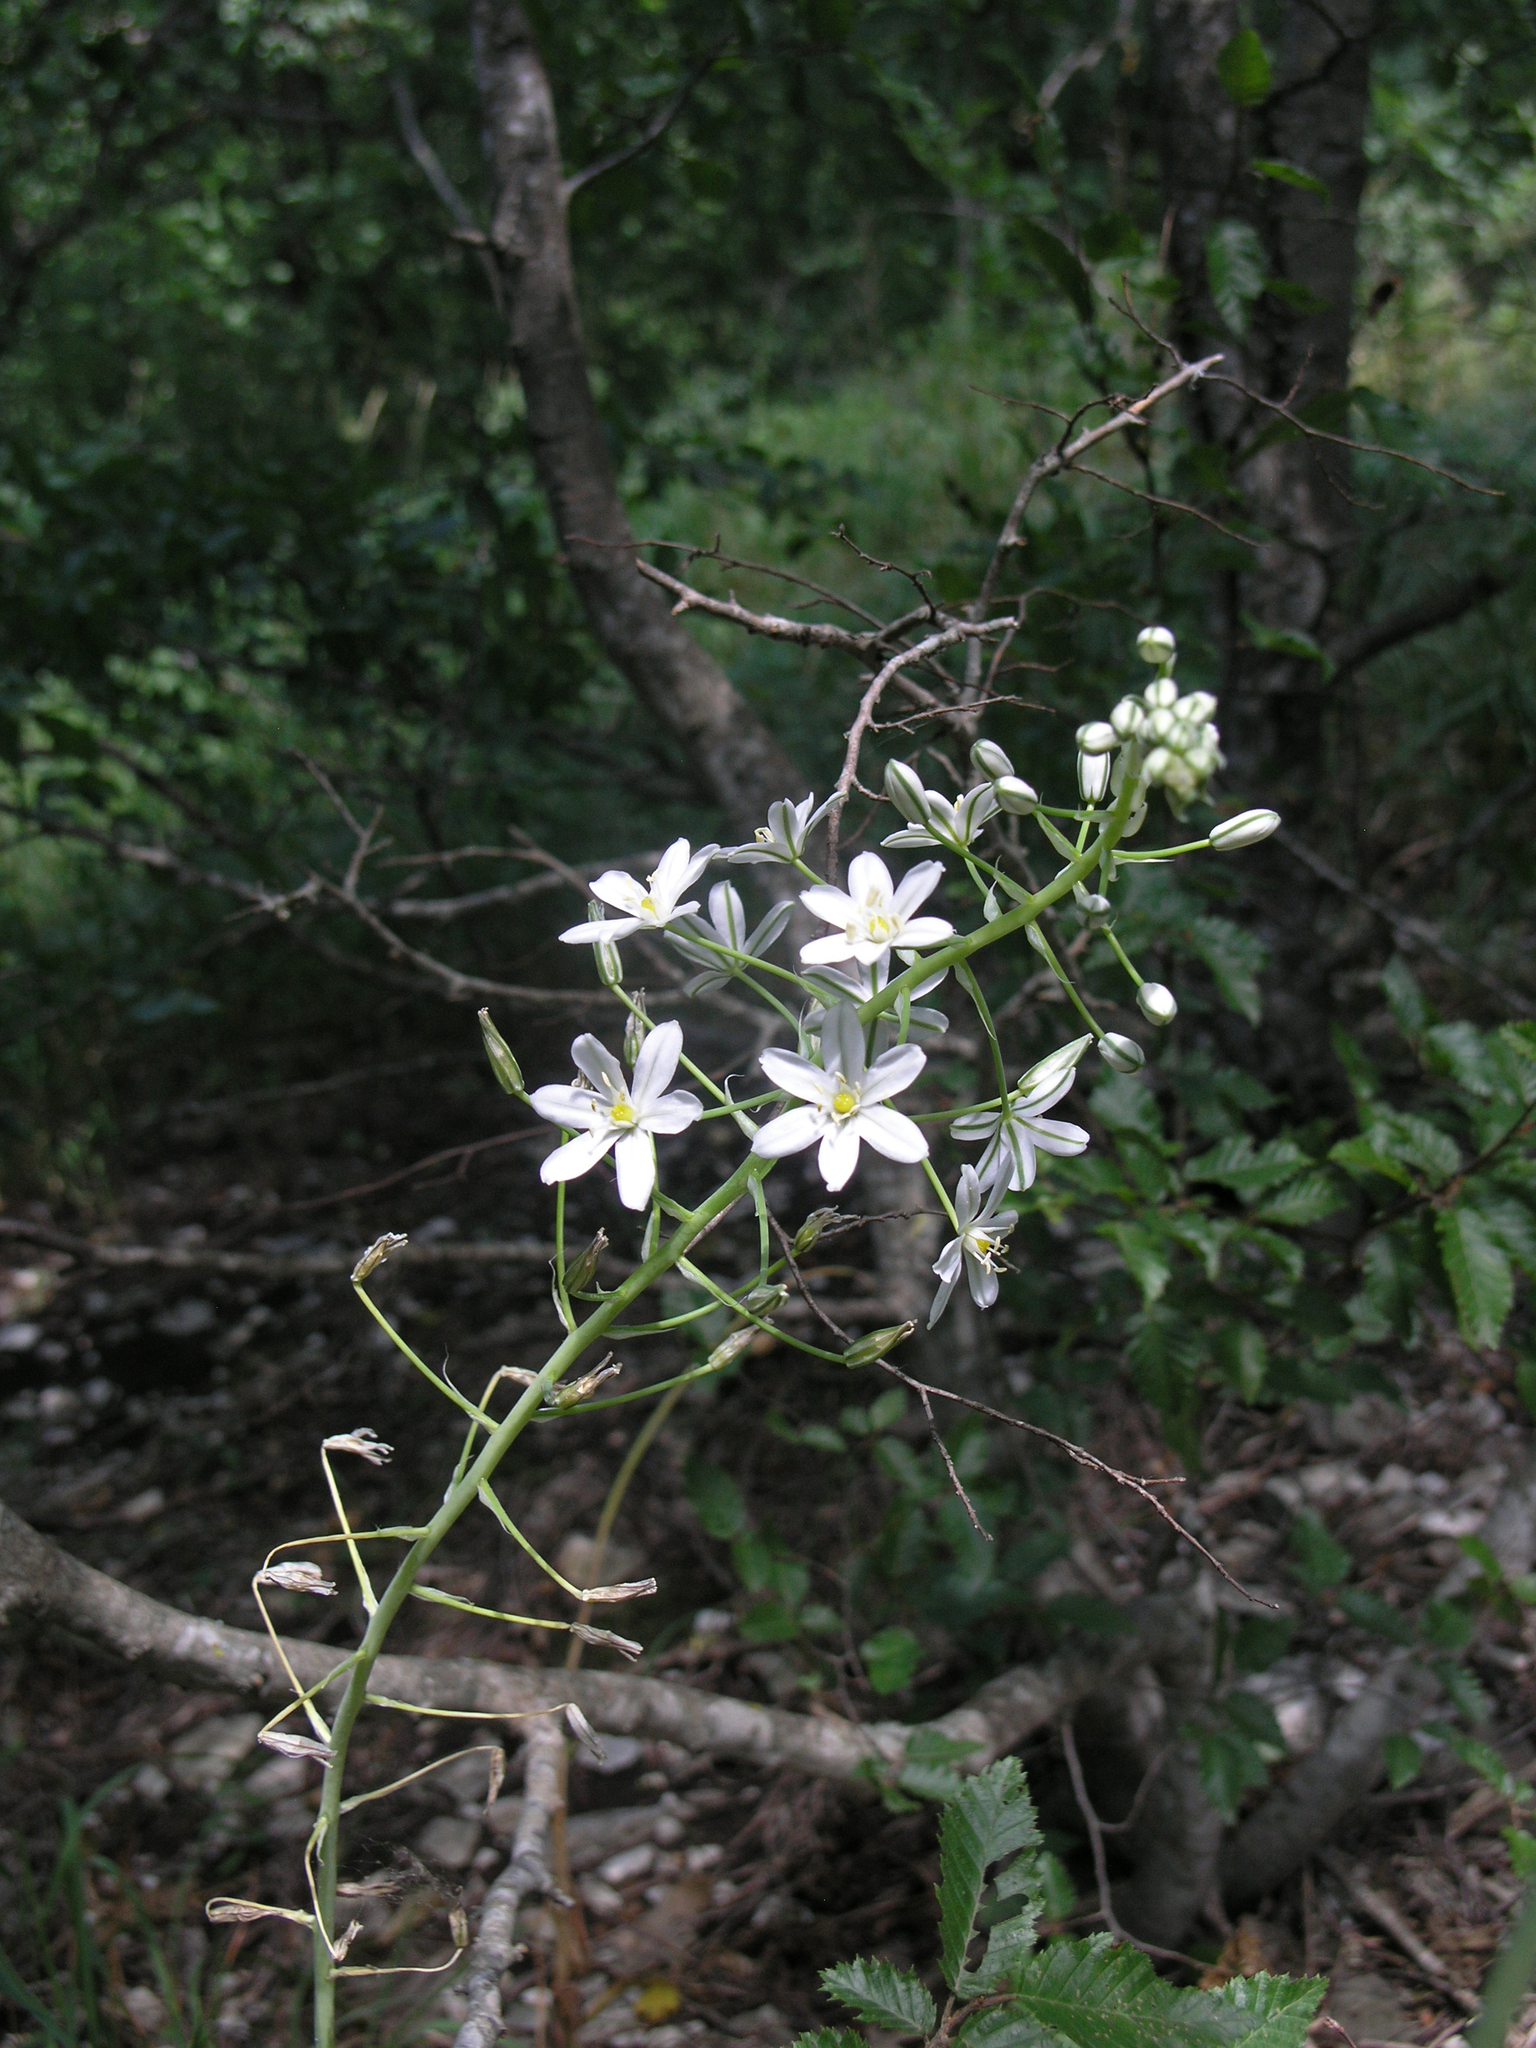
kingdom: Plantae
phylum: Tracheophyta
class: Liliopsida
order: Asparagales
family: Asparagaceae
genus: Ornithogalum
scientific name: Ornithogalum ponticum
